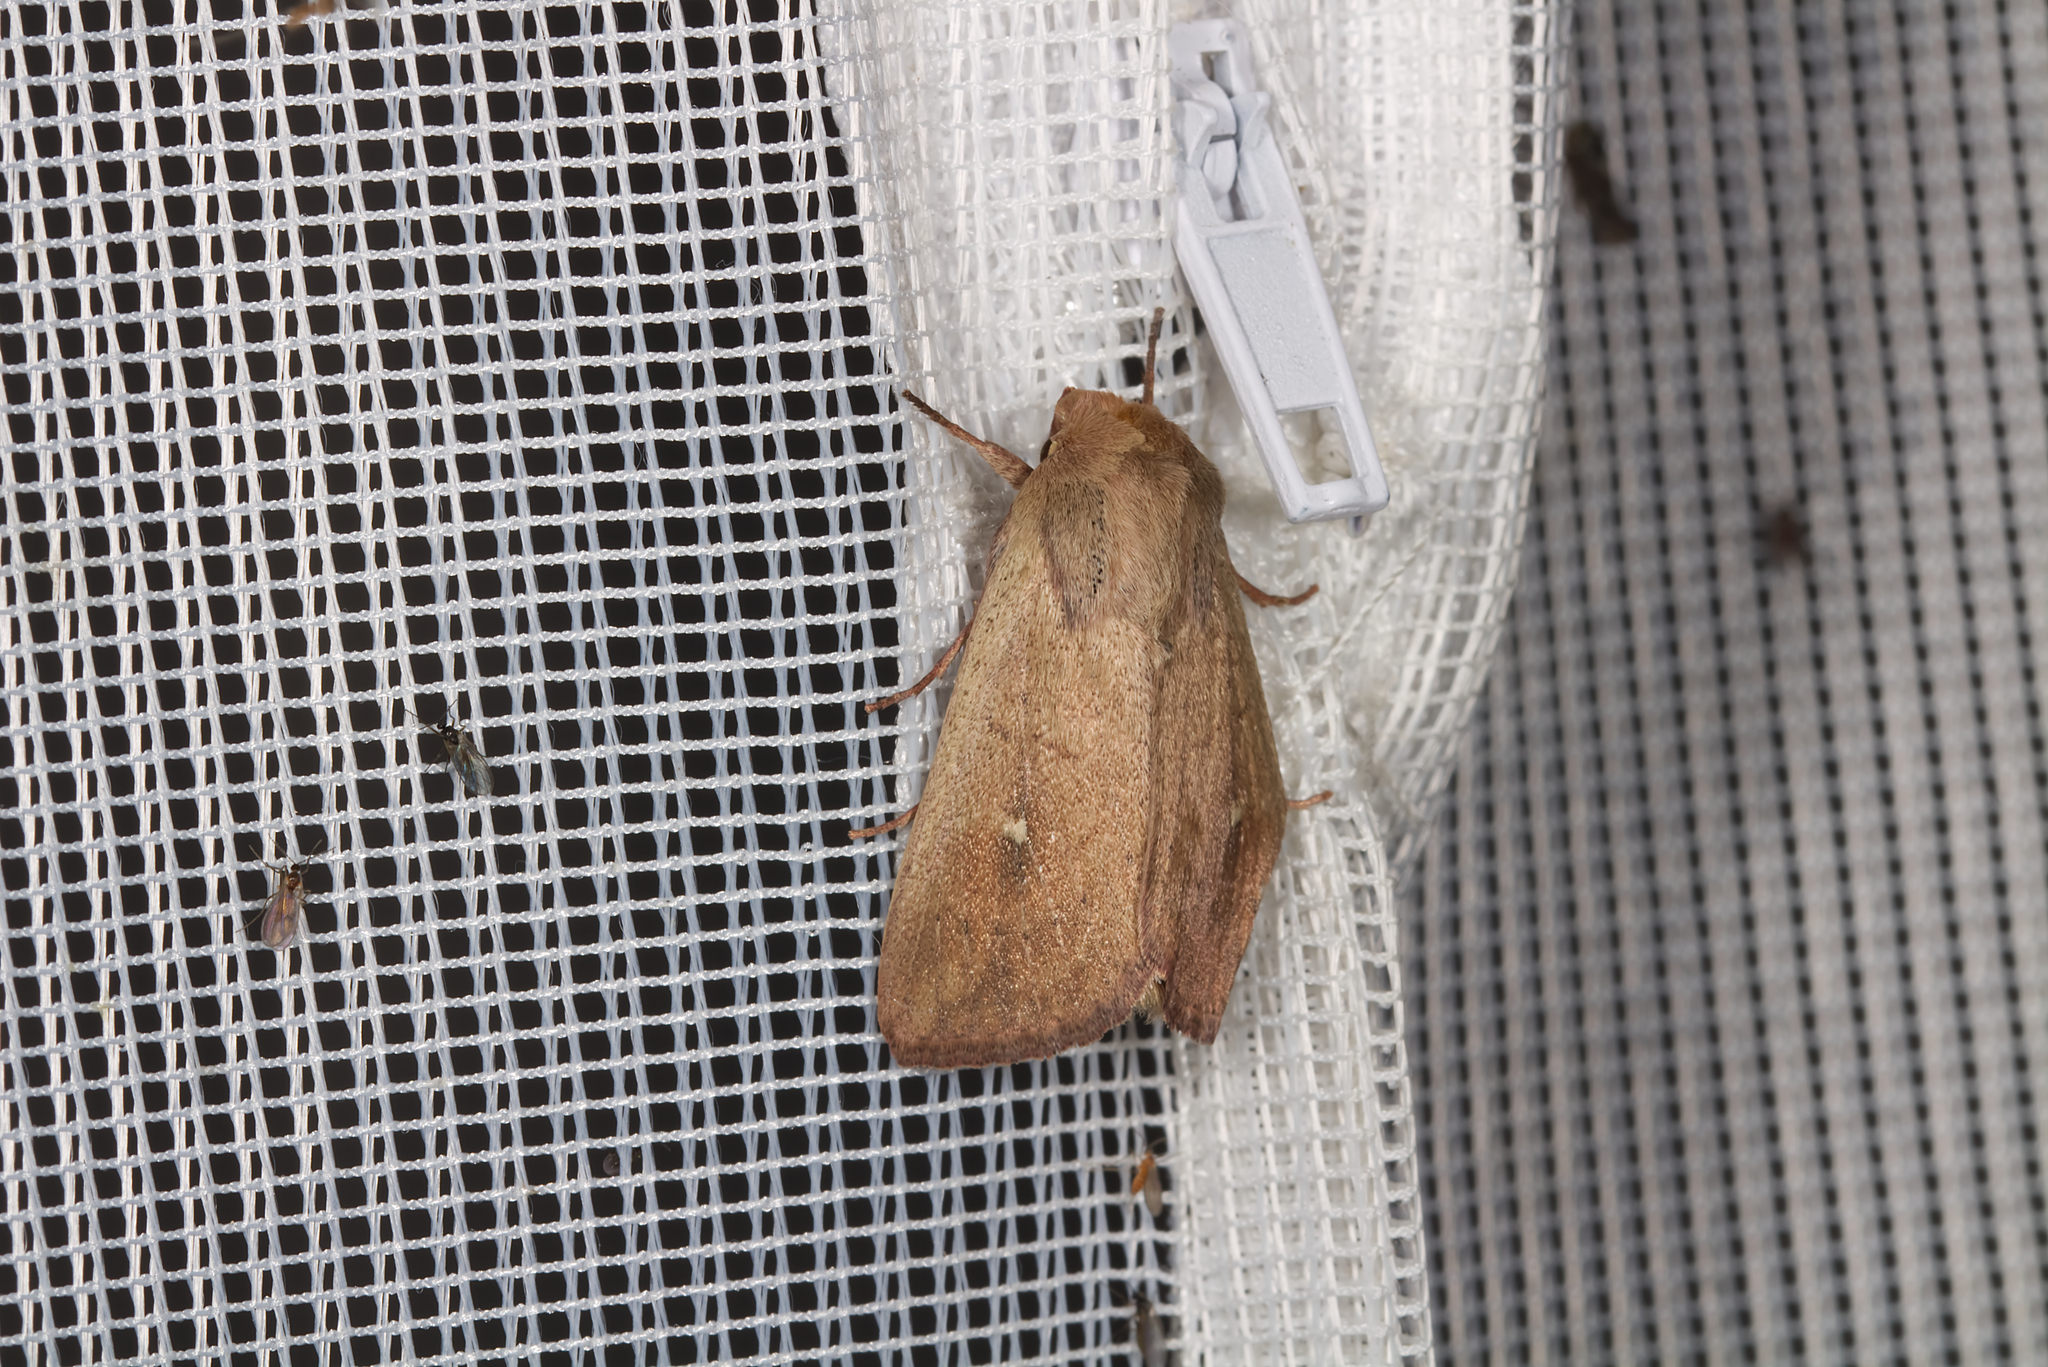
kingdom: Animalia
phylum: Arthropoda
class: Insecta
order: Lepidoptera
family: Noctuidae
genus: Mythimna
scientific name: Mythimna ferrago
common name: Clay
